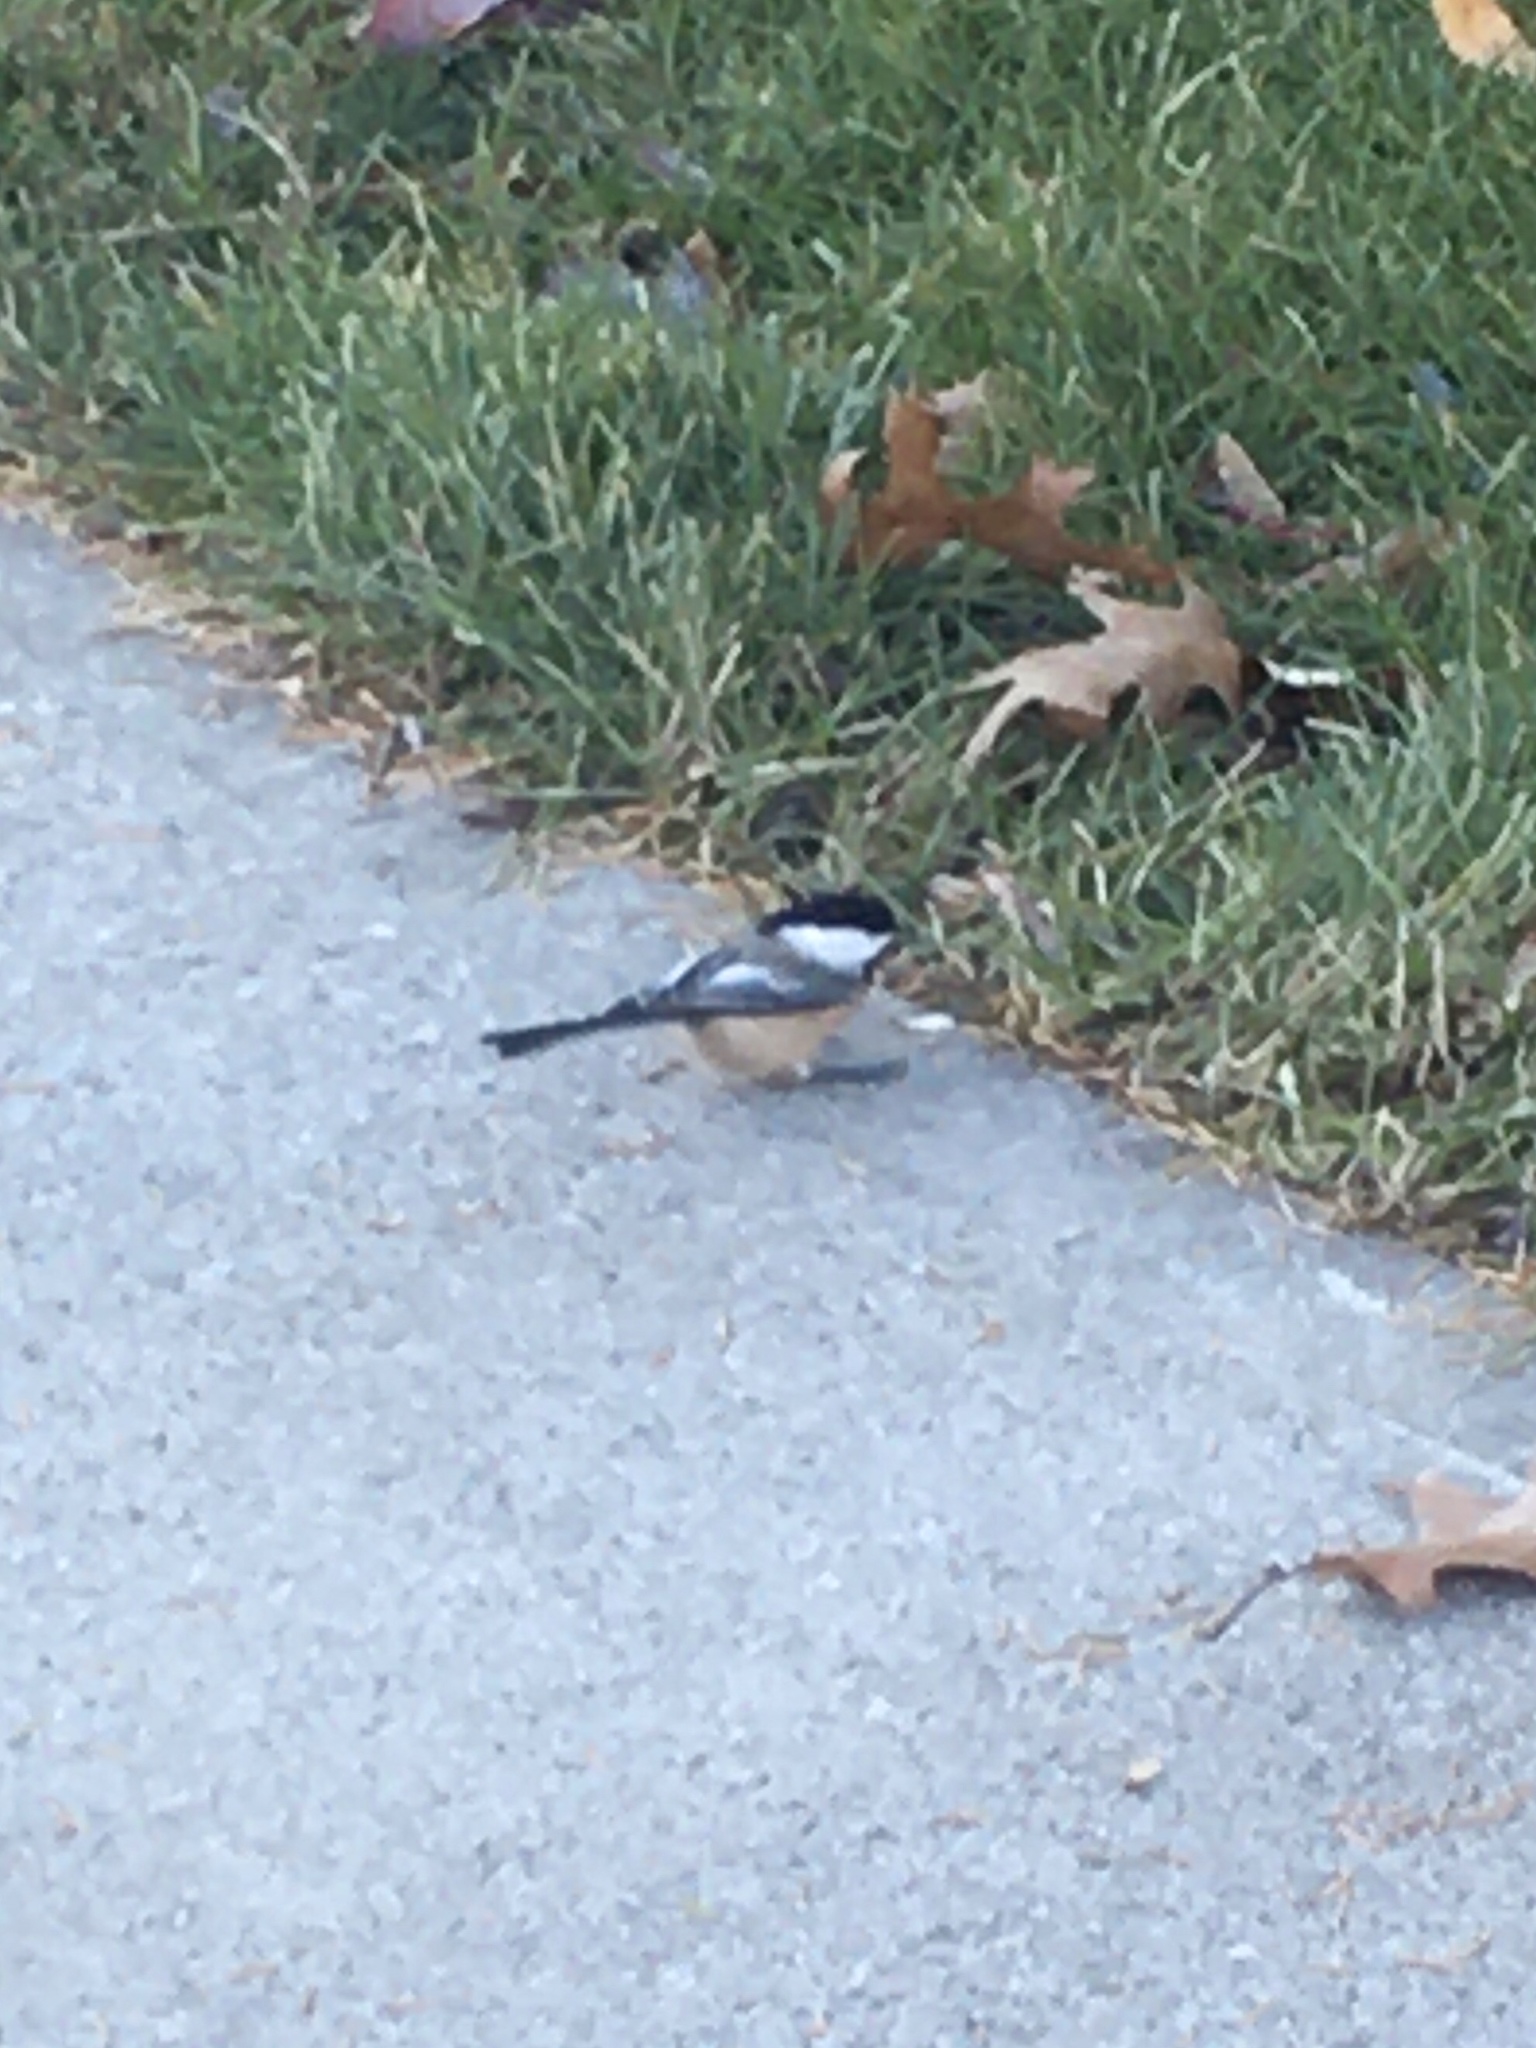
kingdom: Animalia
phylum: Chordata
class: Aves
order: Passeriformes
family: Paridae
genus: Poecile
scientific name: Poecile atricapillus
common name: Black-capped chickadee
